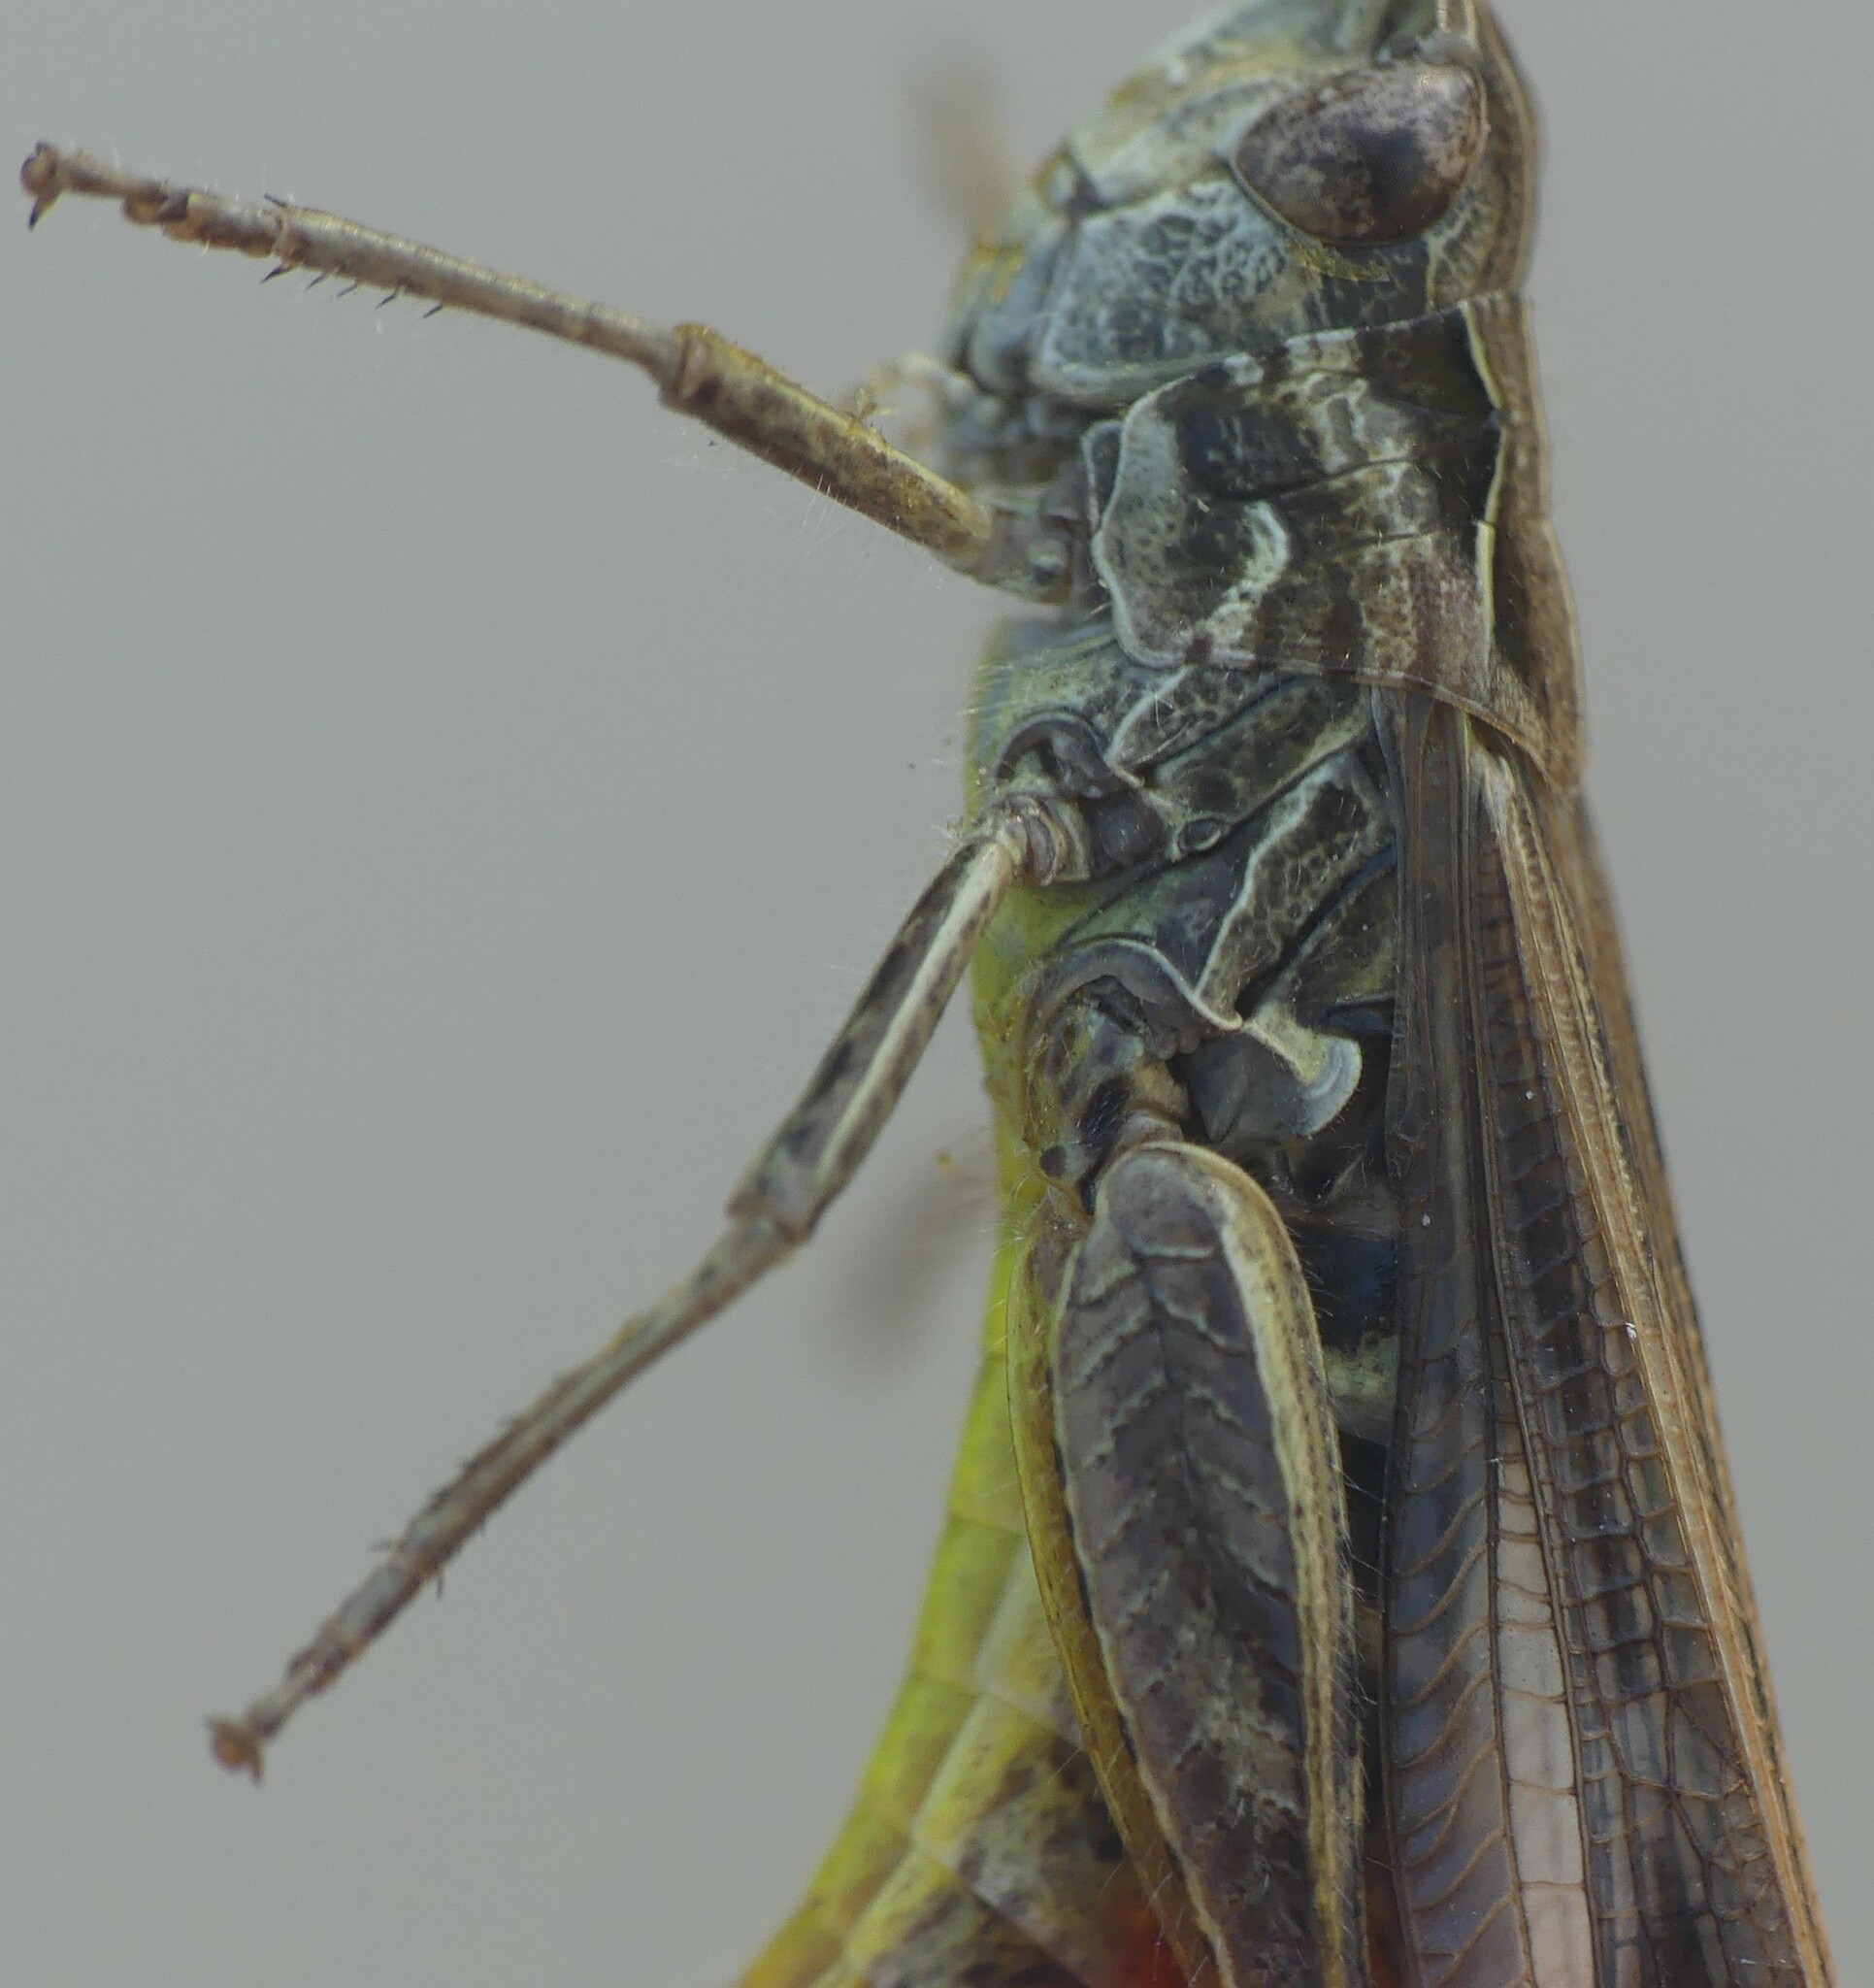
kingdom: Animalia
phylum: Arthropoda
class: Insecta
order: Orthoptera
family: Acrididae
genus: Chorthippus
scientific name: Chorthippus biguttulus
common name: Bow-winged grasshopper
